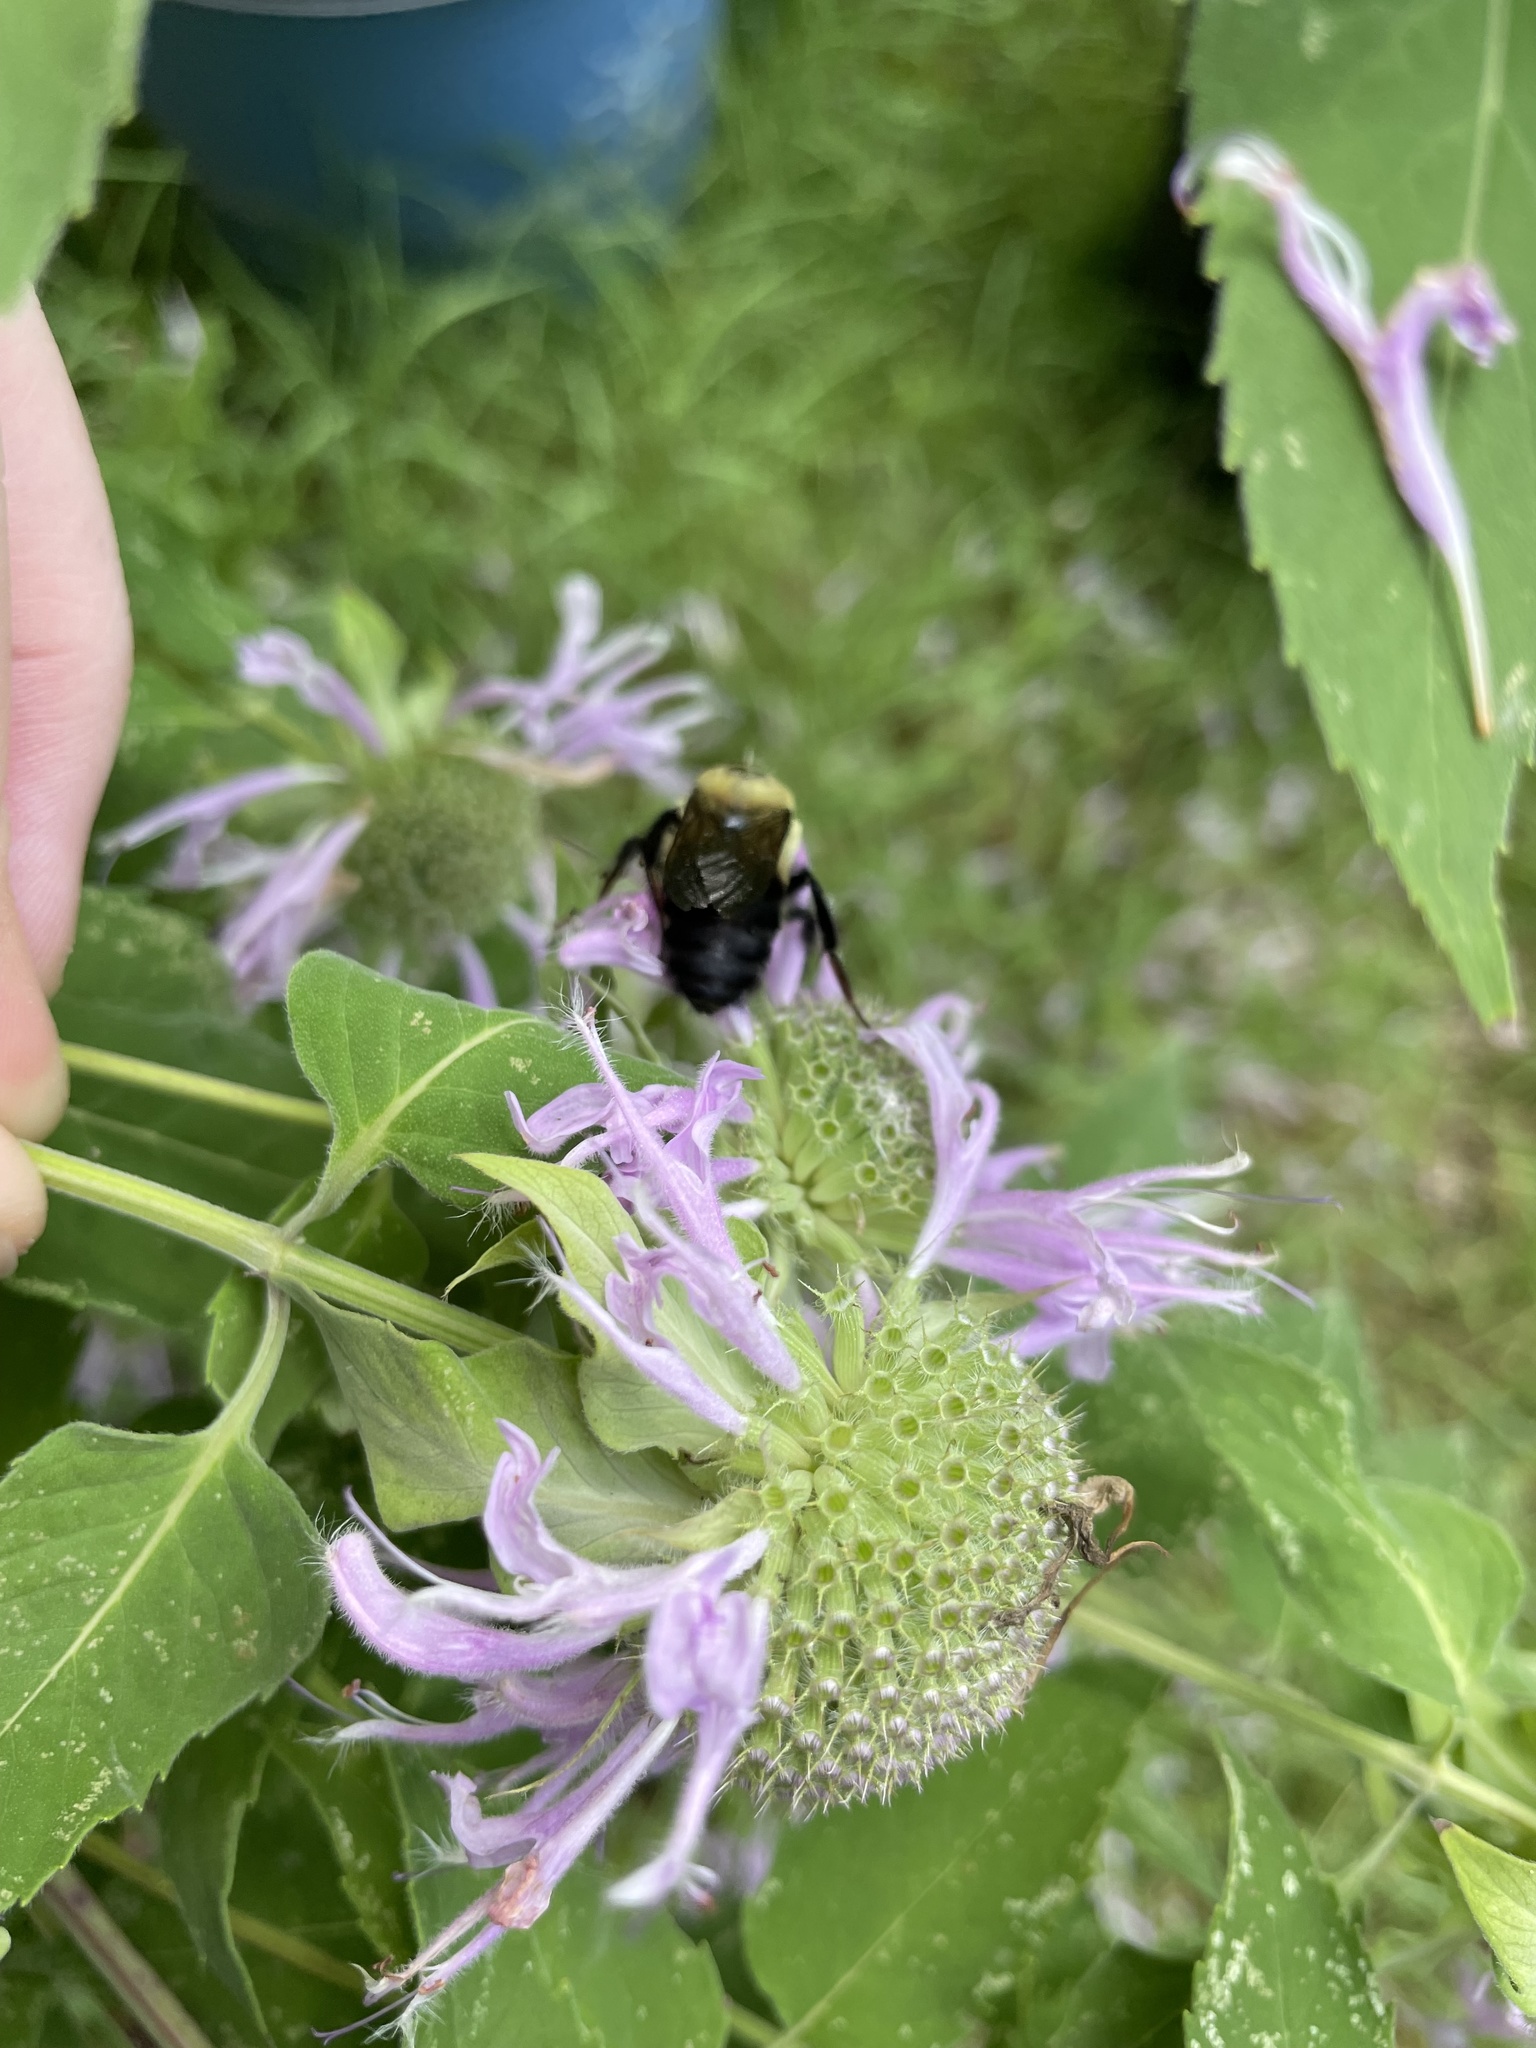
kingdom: Animalia
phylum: Arthropoda
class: Insecta
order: Hymenoptera
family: Apidae
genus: Bombus
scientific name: Bombus griseocollis
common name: Brown-belted bumble bee
